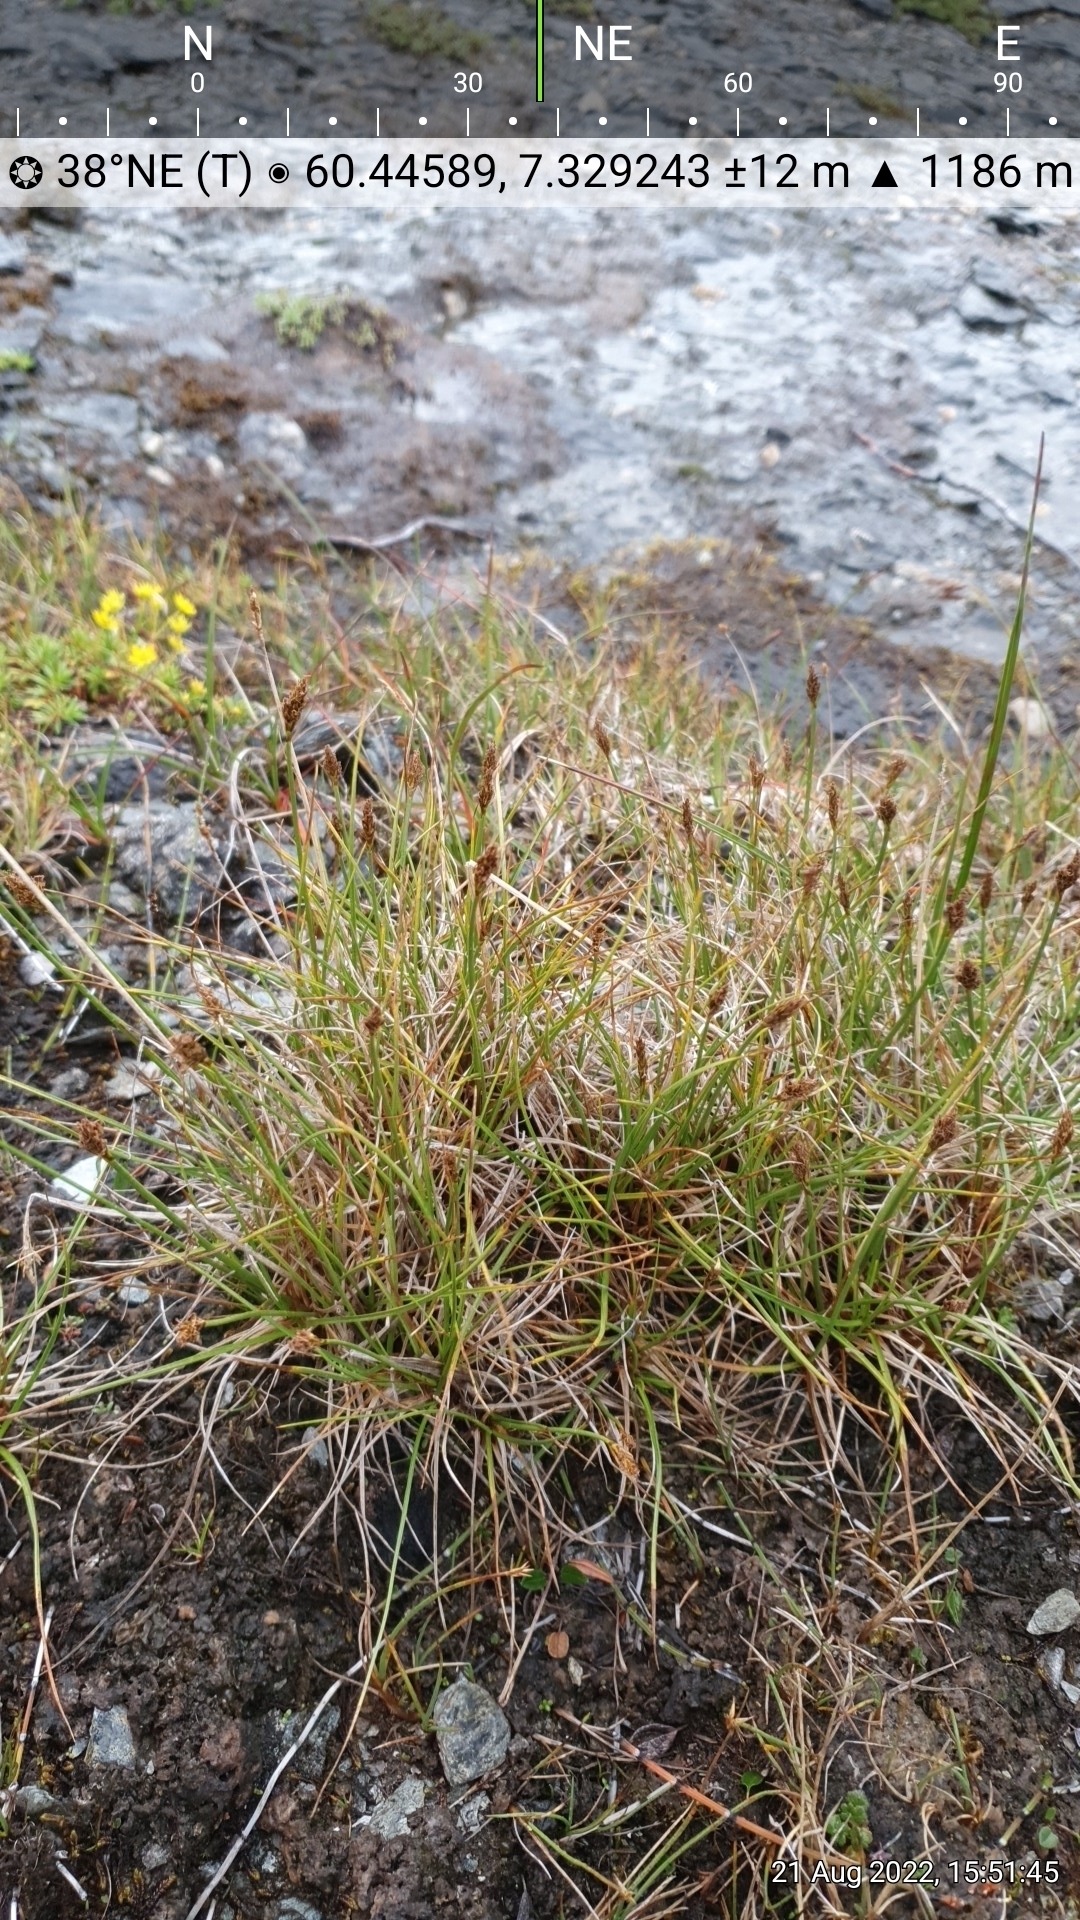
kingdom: Plantae
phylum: Tracheophyta
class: Liliopsida
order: Poales
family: Cyperaceae
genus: Carex
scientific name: Carex simpliciuscula
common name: Simple bog sedge
